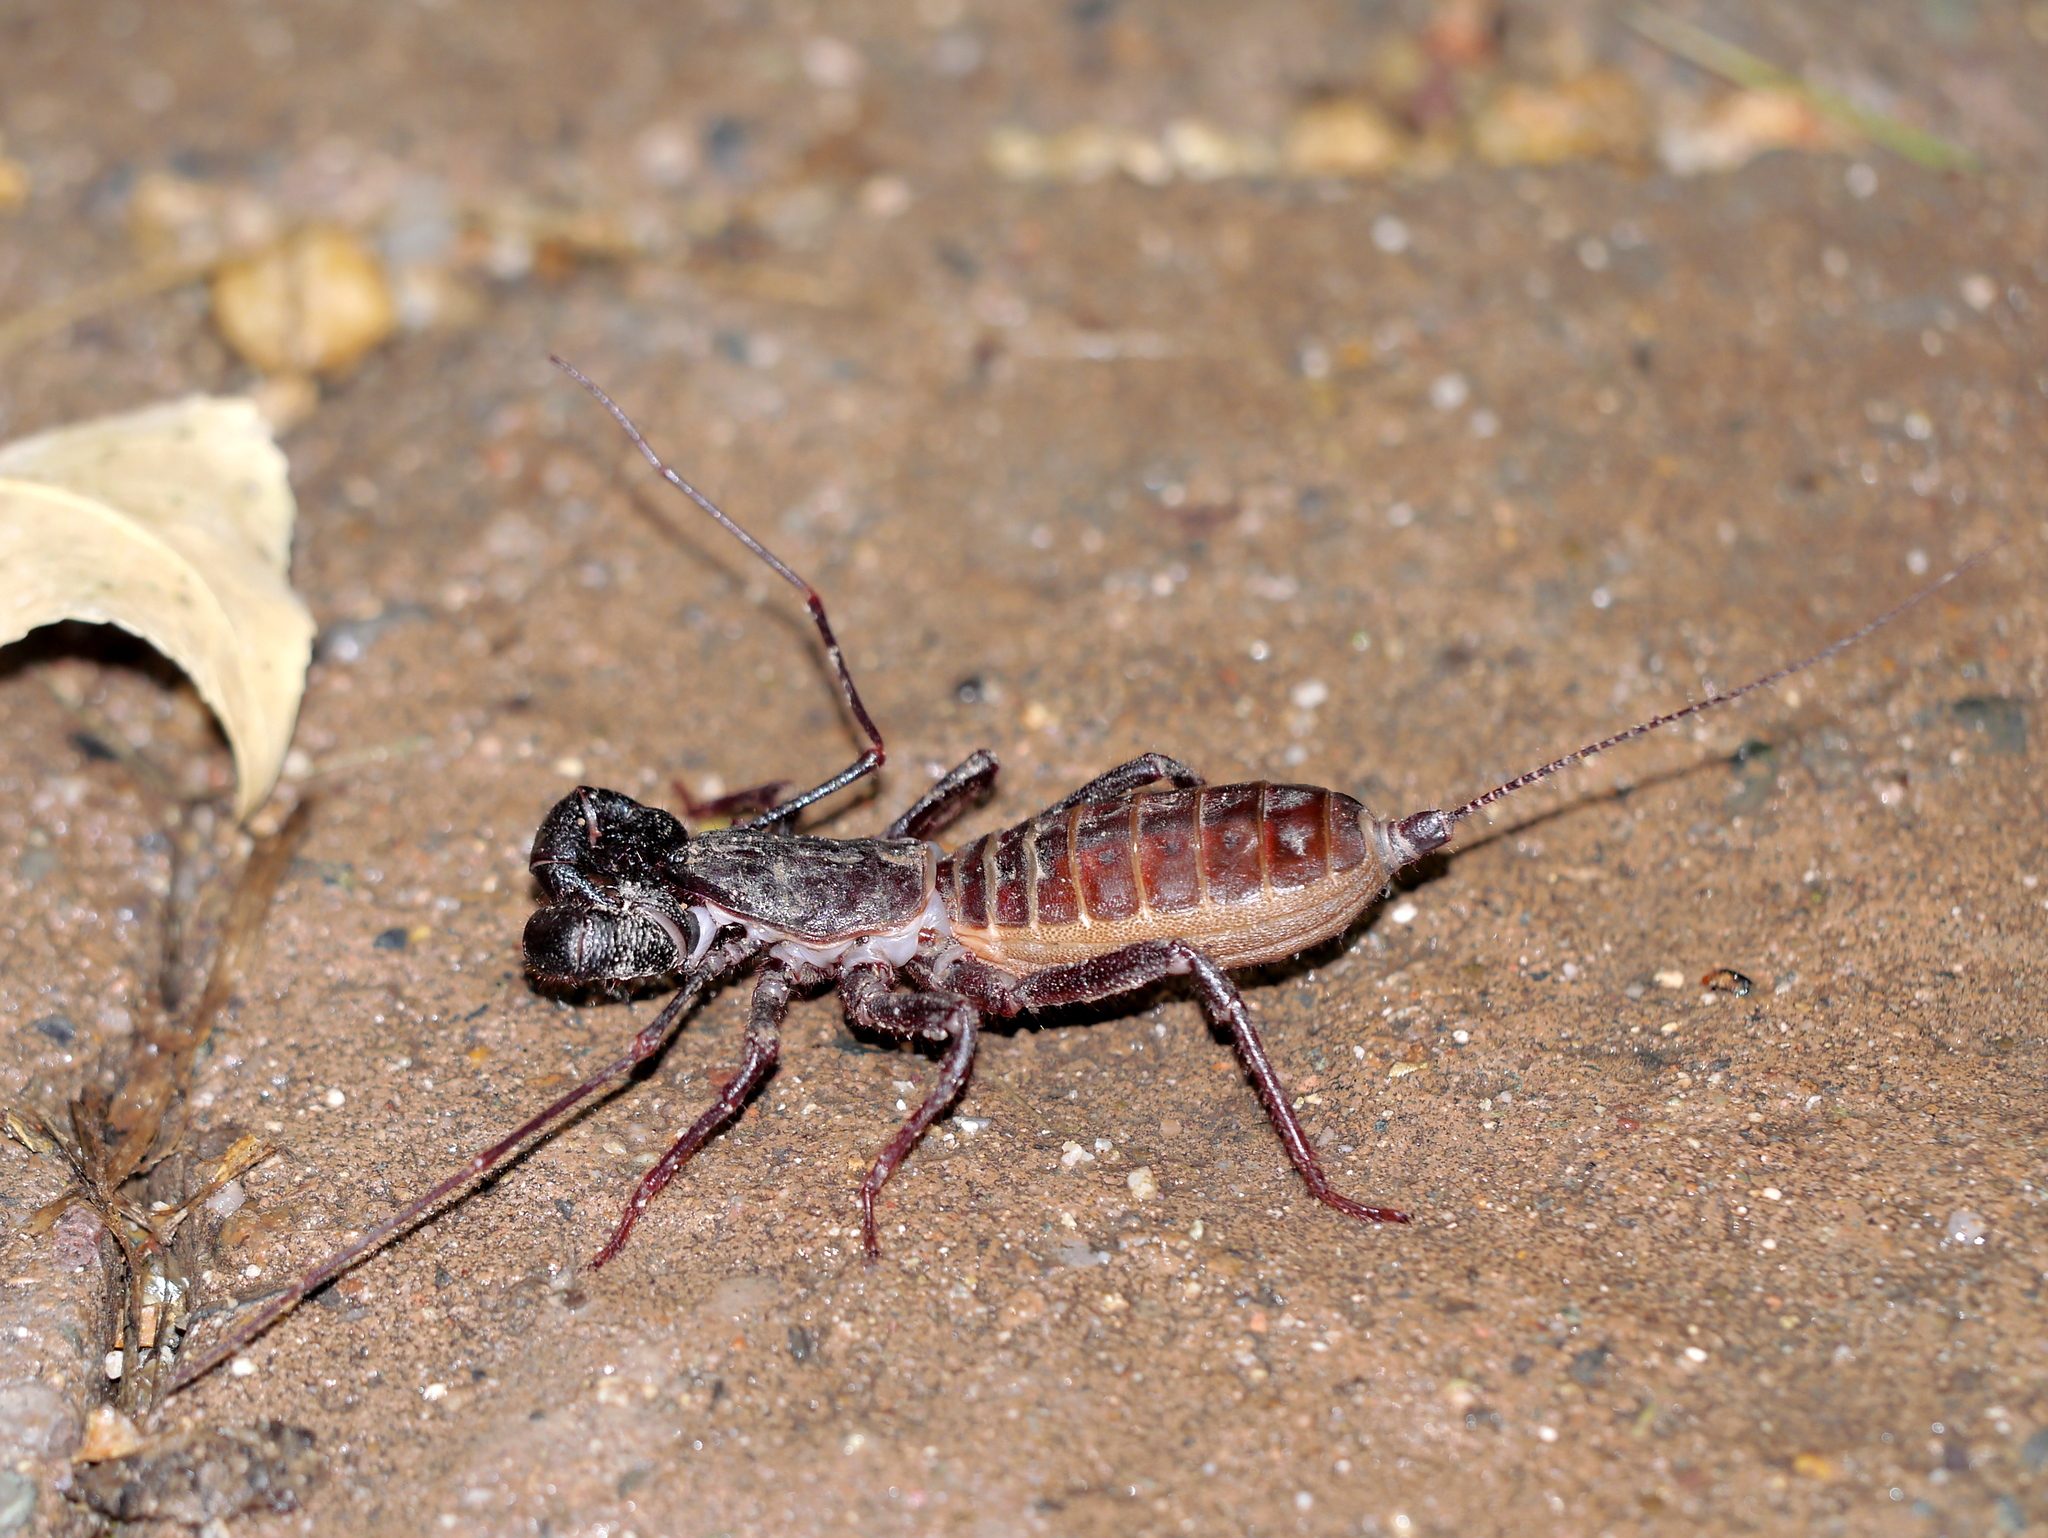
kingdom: Animalia
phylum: Arthropoda
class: Arachnida
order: Uropygi
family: Thelyphonidae
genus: Mastigoproctus
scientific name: Mastigoproctus tohono
